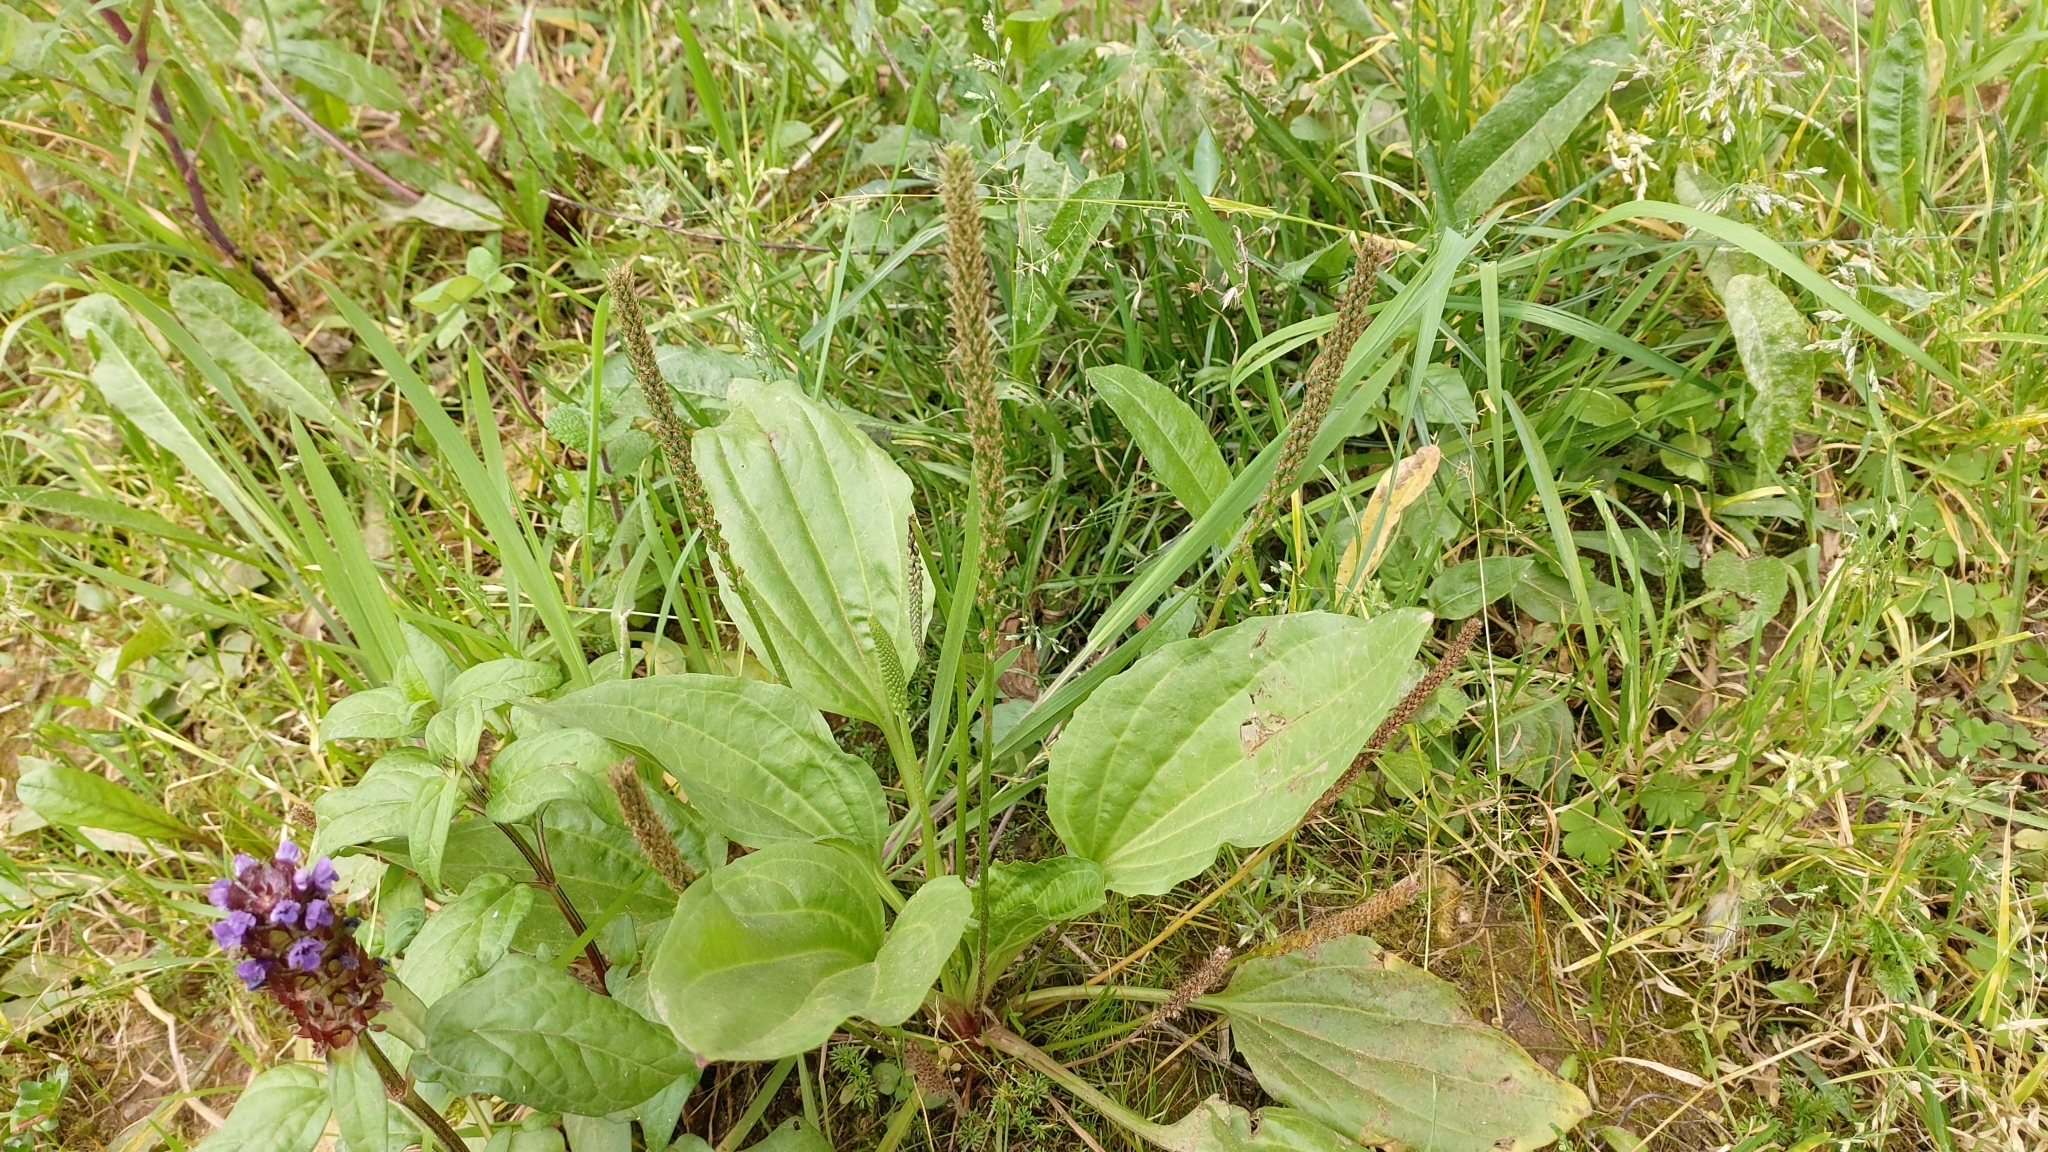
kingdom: Plantae
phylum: Tracheophyta
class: Magnoliopsida
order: Lamiales
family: Plantaginaceae
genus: Plantago
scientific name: Plantago major
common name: Common plantain
